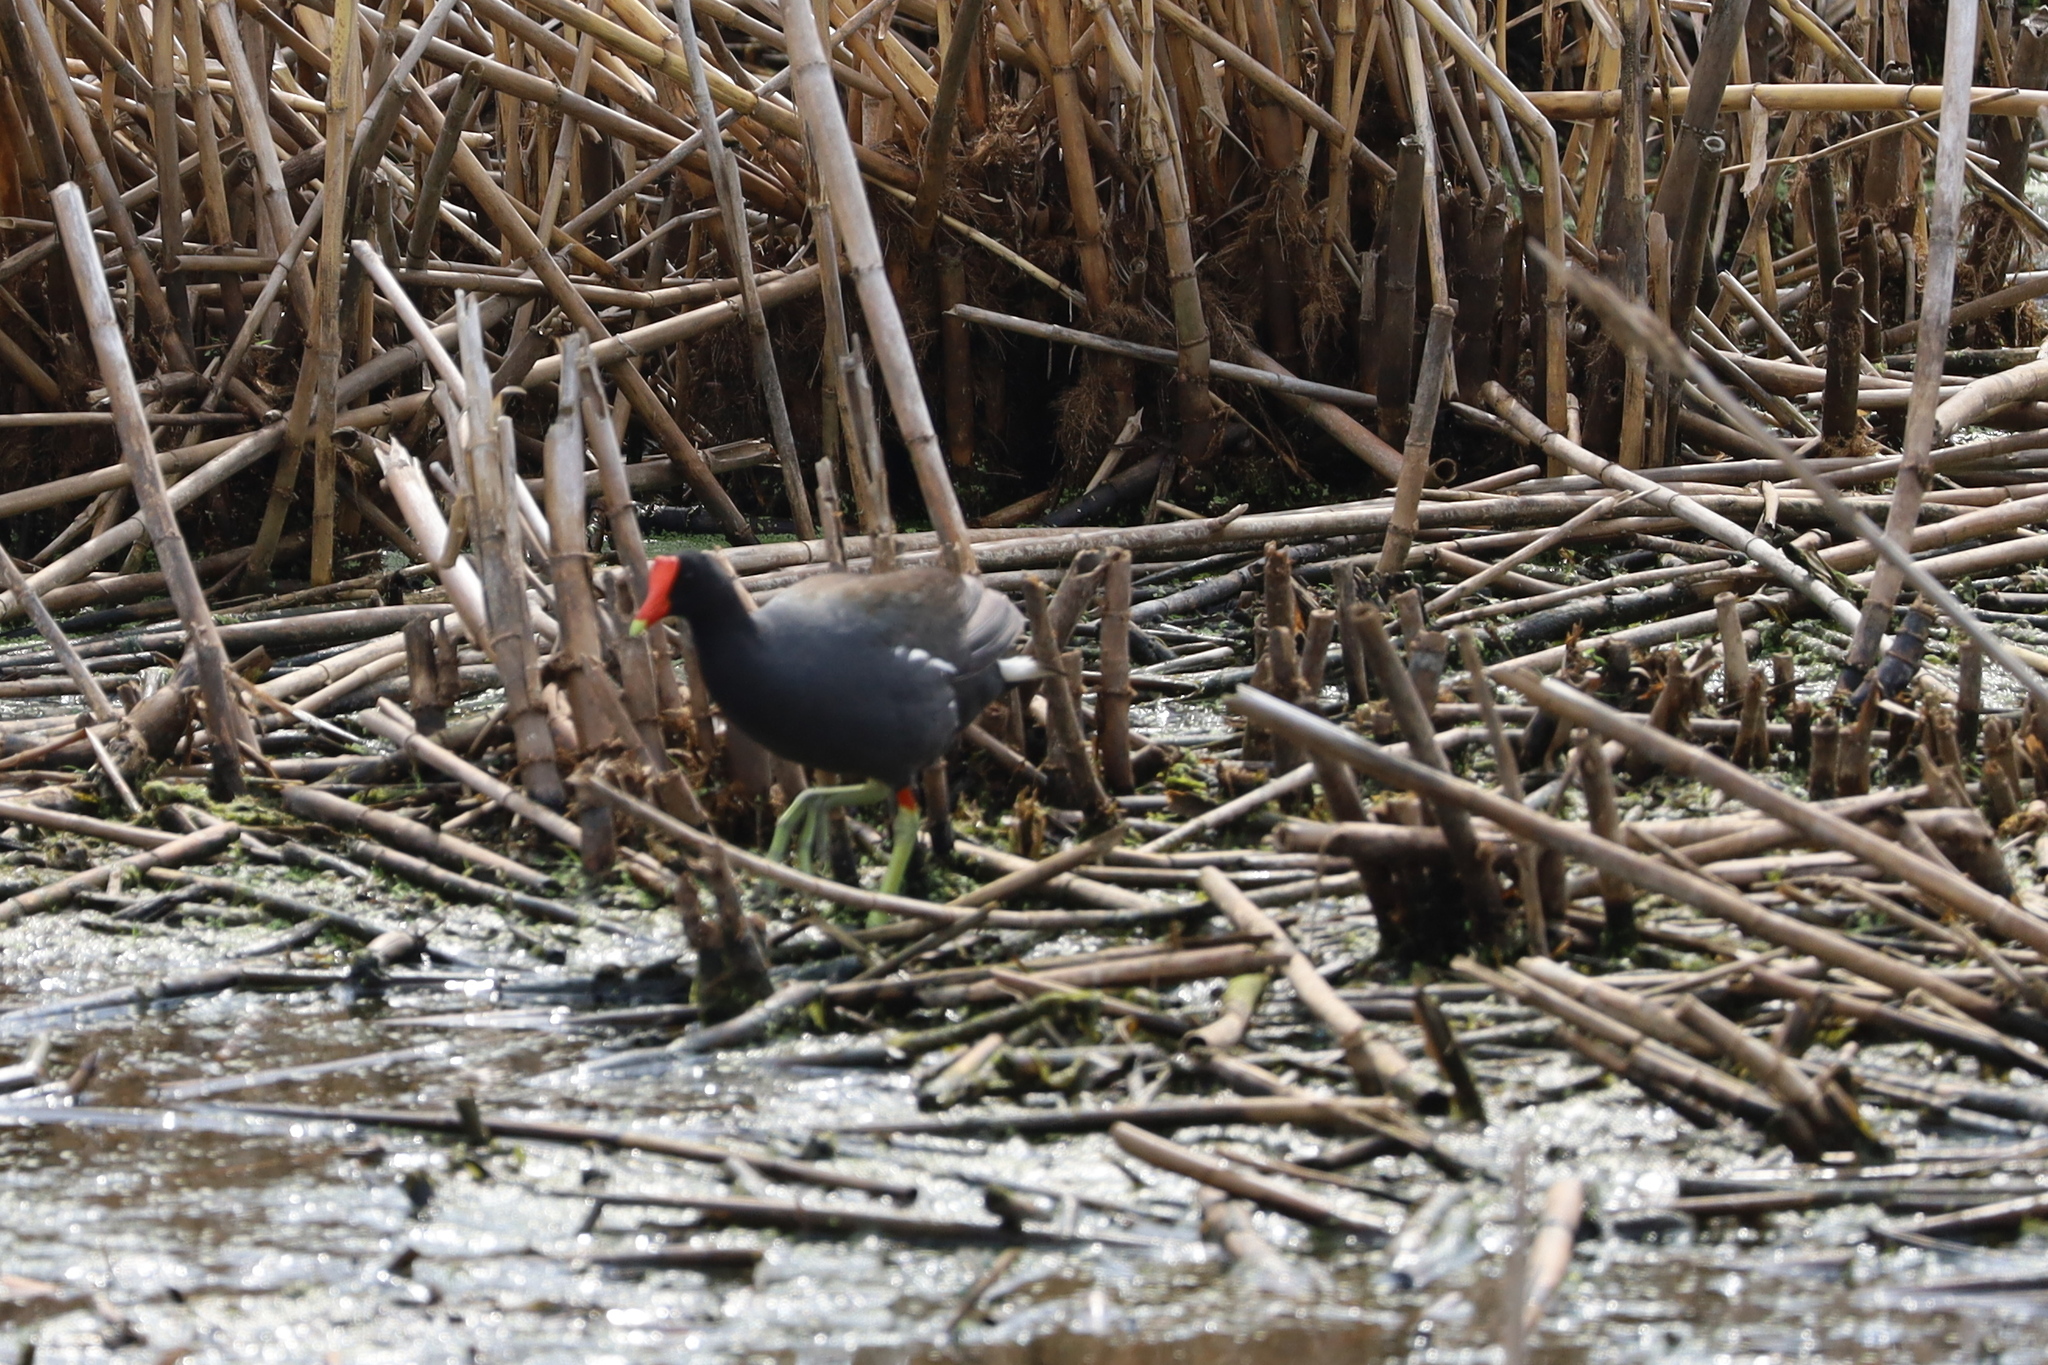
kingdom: Animalia
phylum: Chordata
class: Aves
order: Gruiformes
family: Rallidae
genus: Gallinula
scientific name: Gallinula chloropus
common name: Common moorhen
